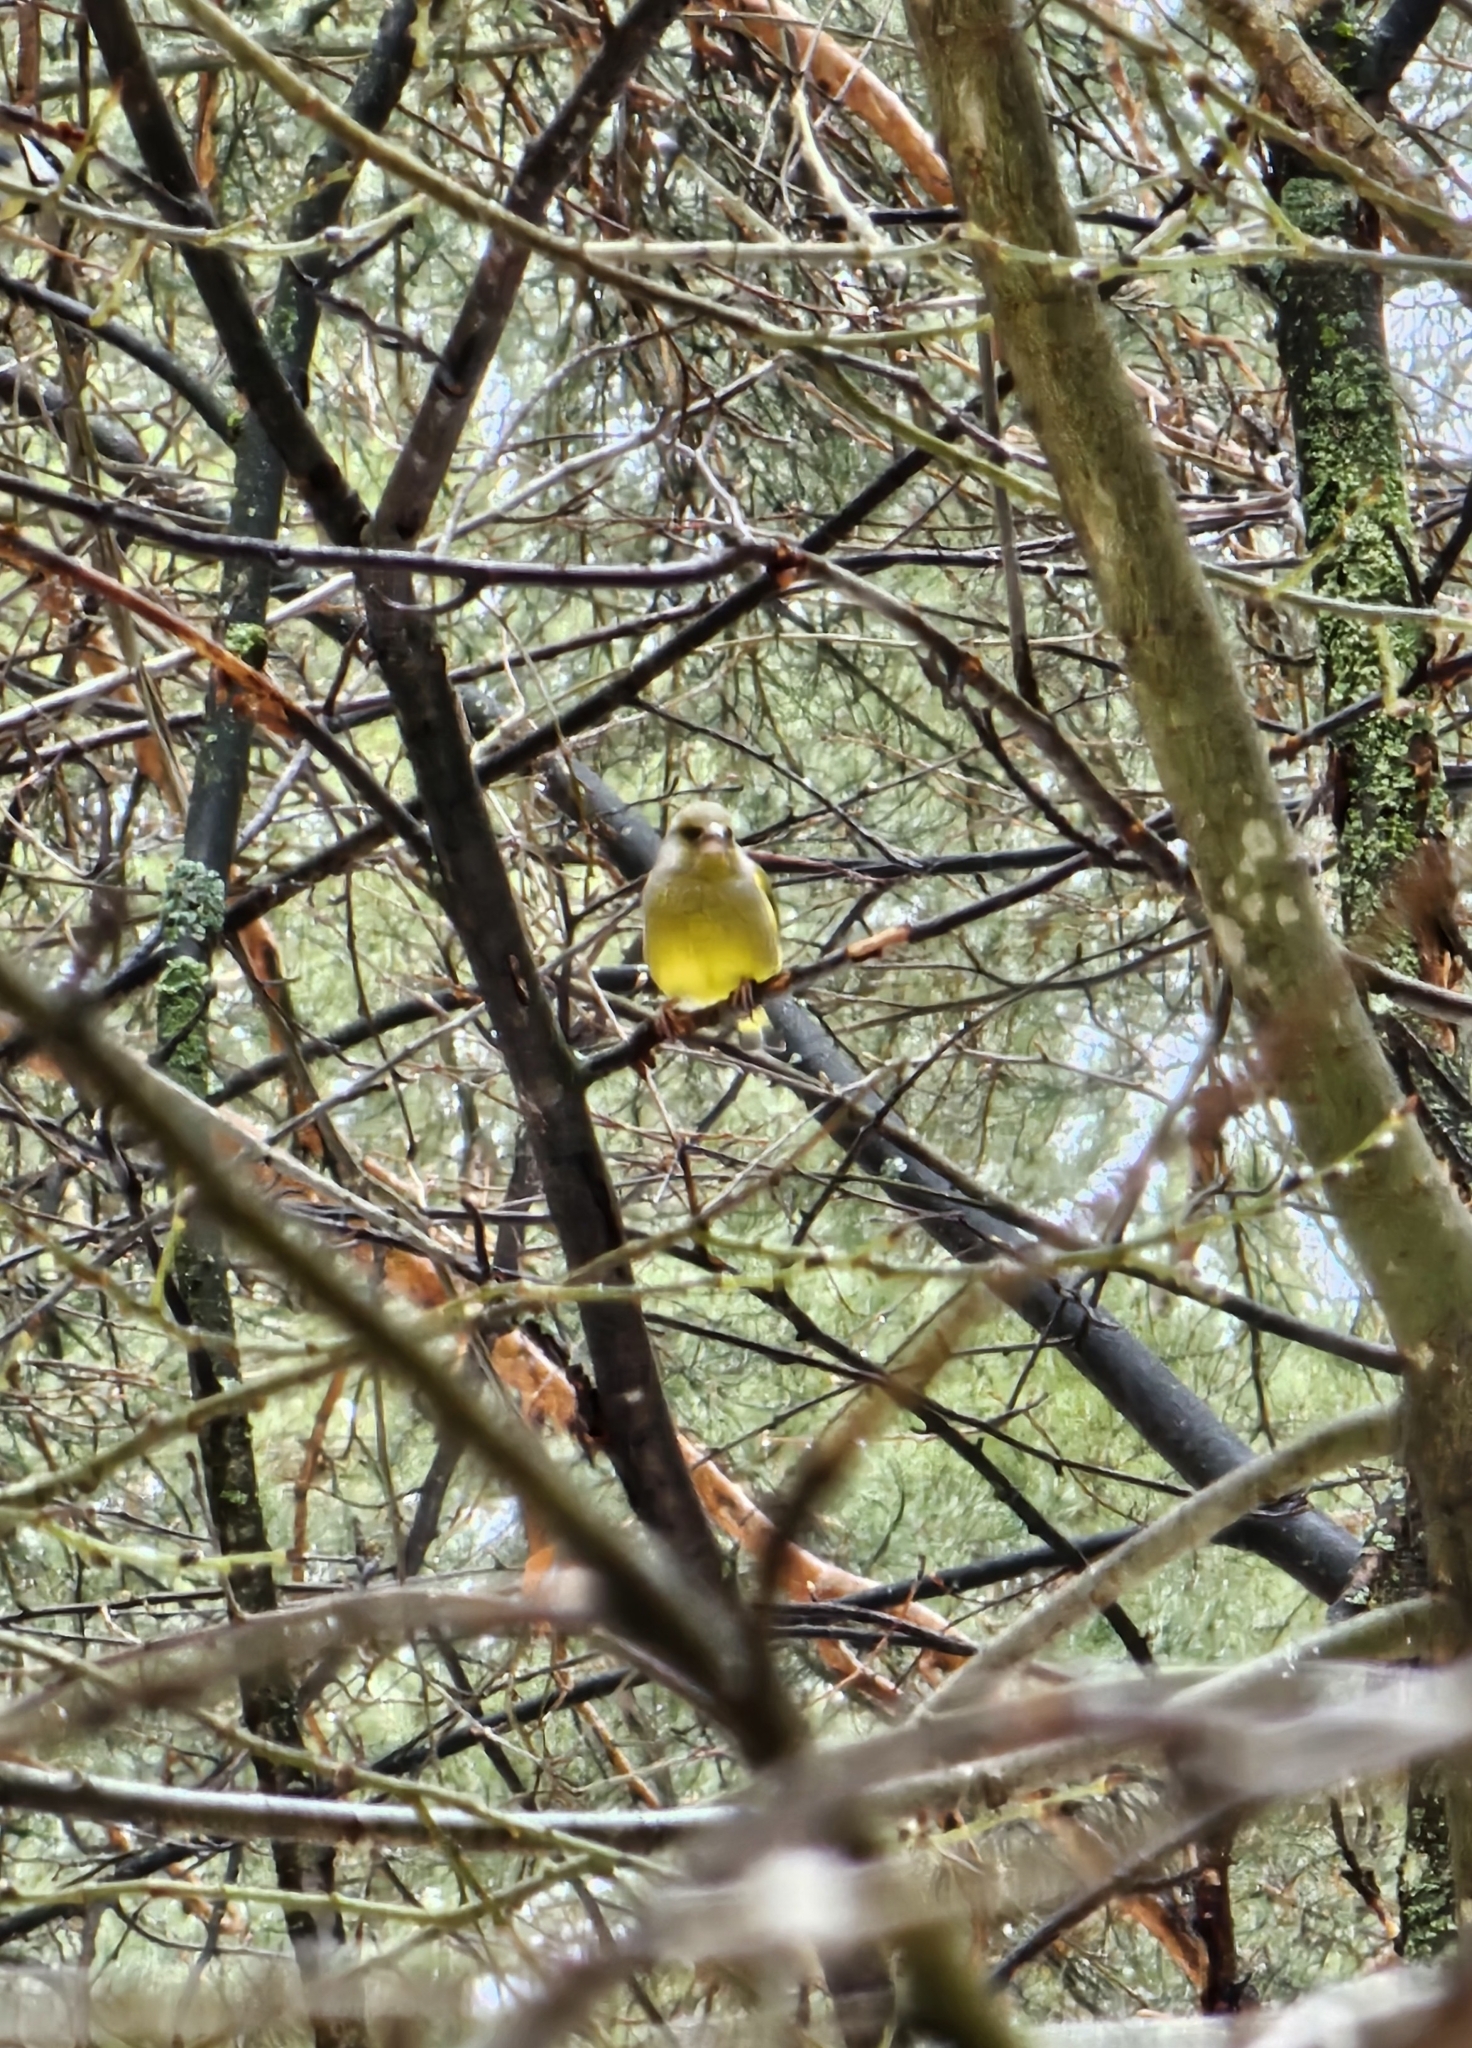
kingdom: Plantae
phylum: Tracheophyta
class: Liliopsida
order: Poales
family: Poaceae
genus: Chloris
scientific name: Chloris chloris
